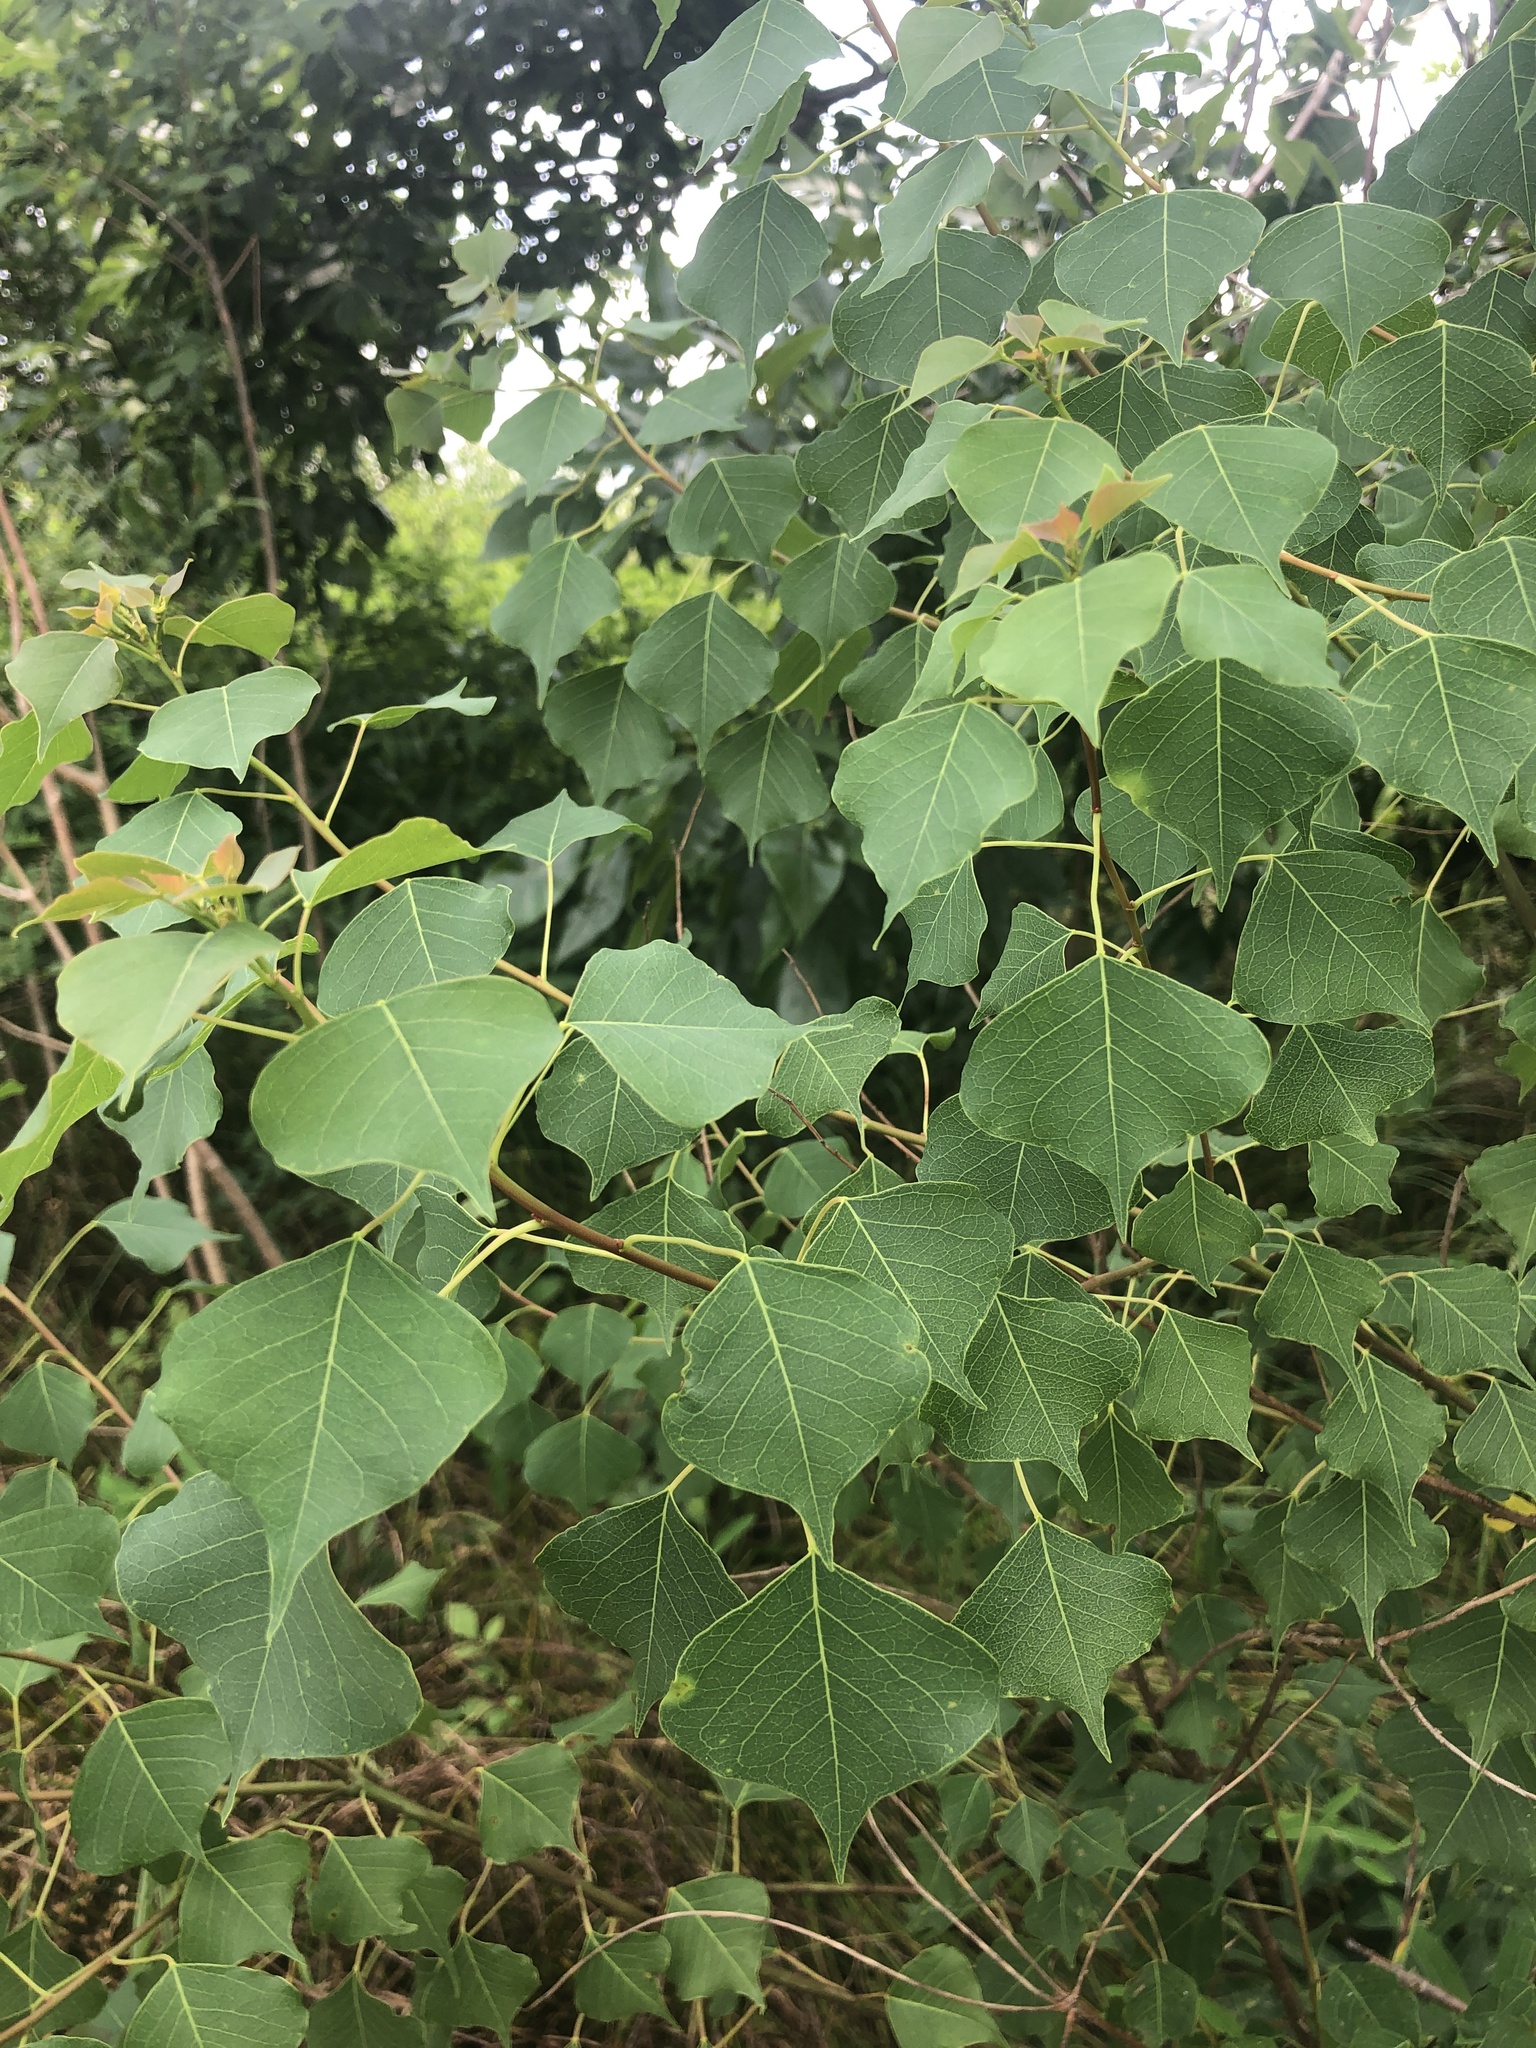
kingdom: Plantae
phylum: Tracheophyta
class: Magnoliopsida
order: Malpighiales
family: Euphorbiaceae
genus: Triadica
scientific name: Triadica sebifera
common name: Chinese tallow
